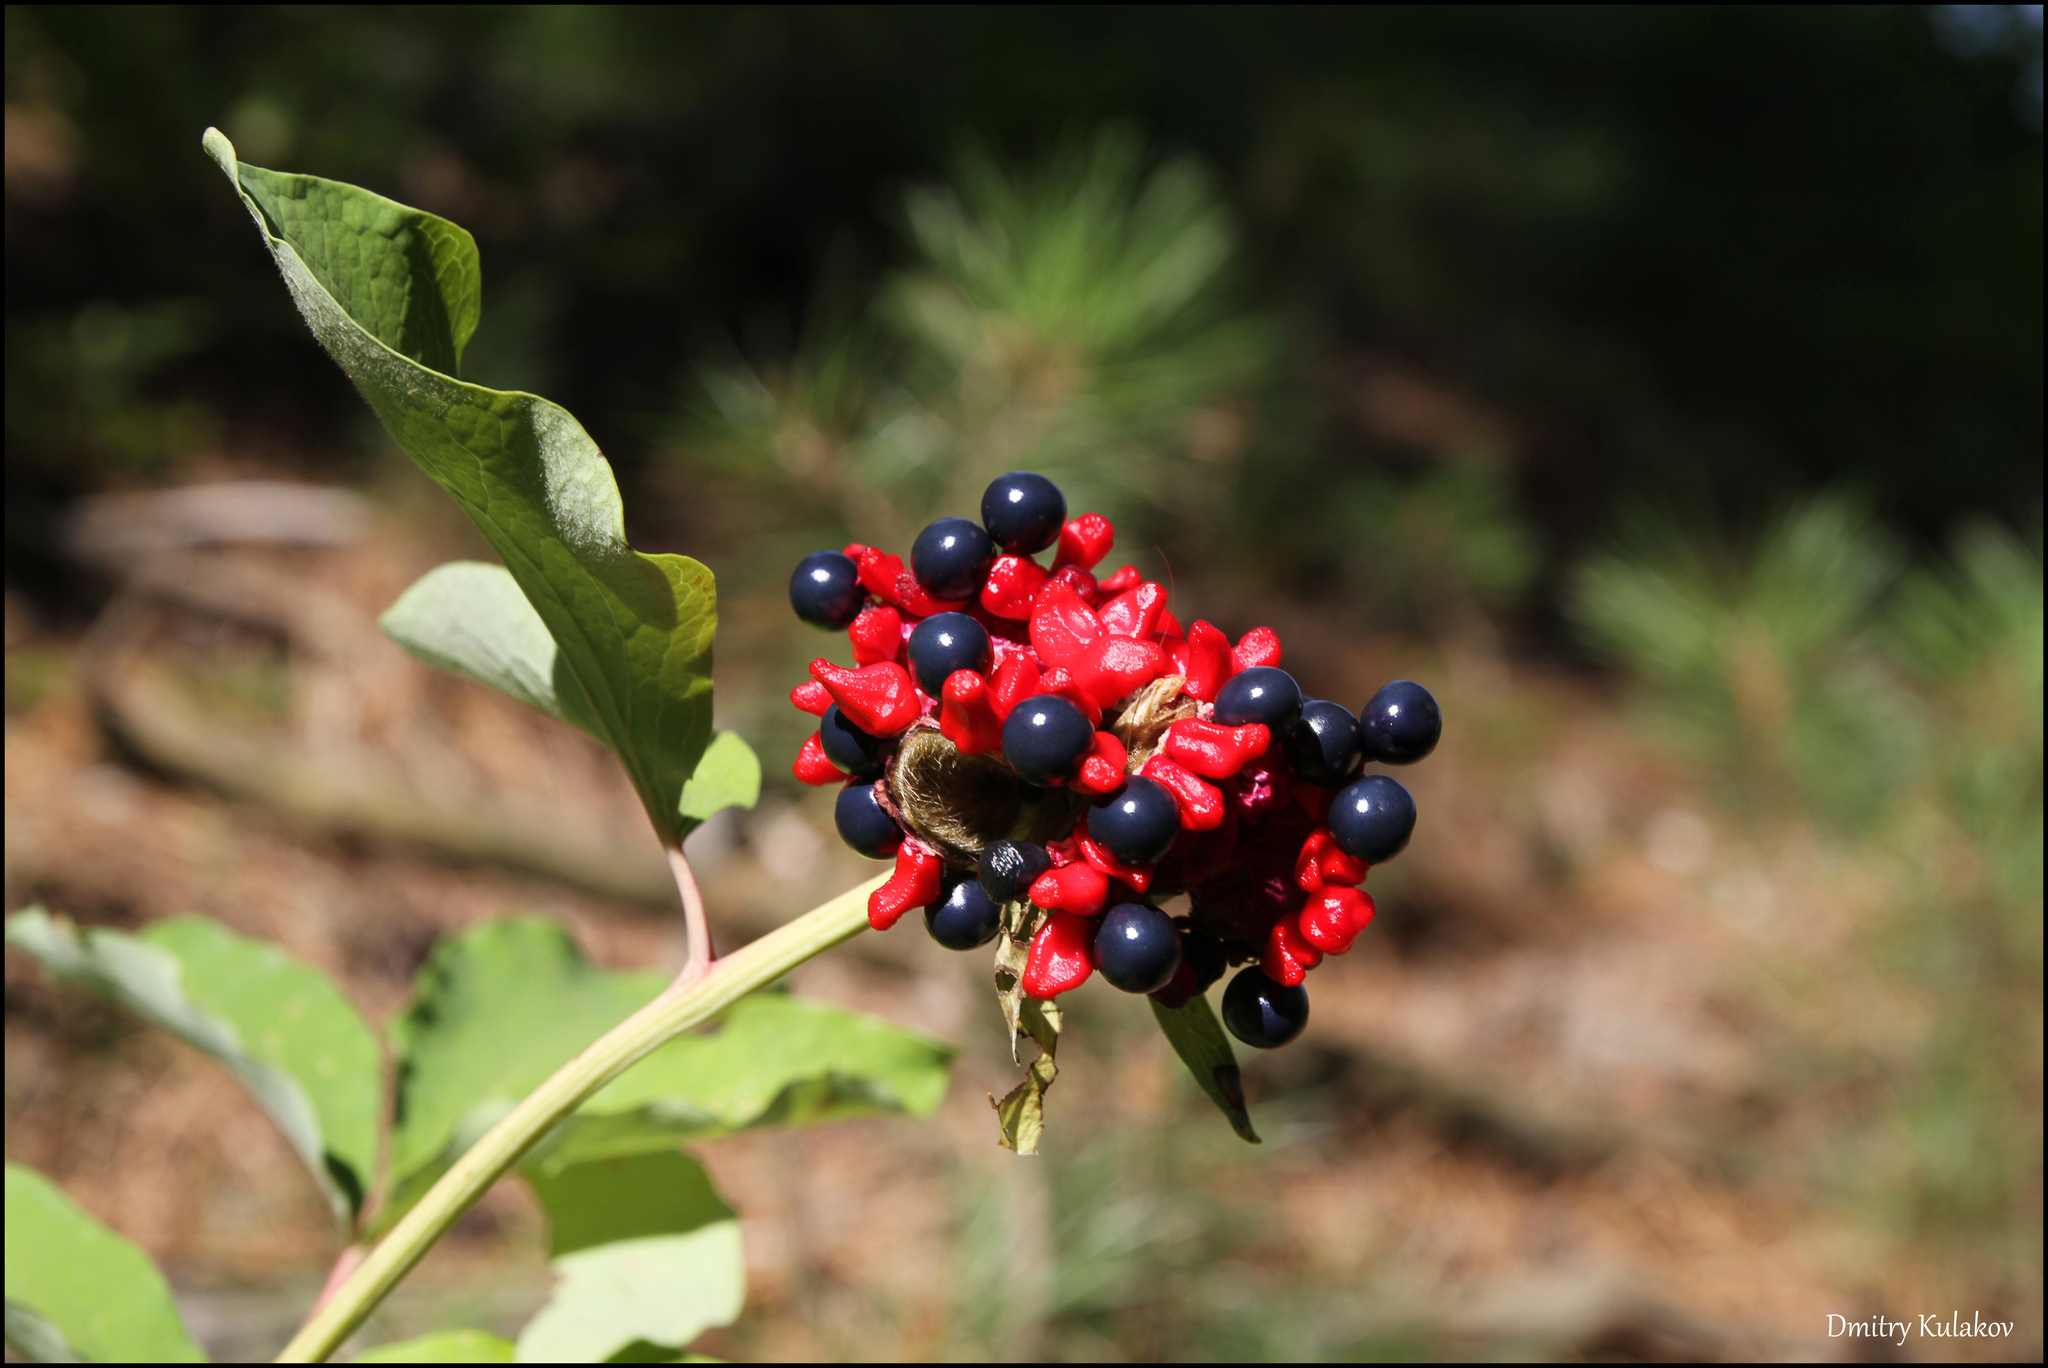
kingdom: Plantae
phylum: Tracheophyta
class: Magnoliopsida
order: Saxifragales
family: Paeoniaceae
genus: Paeonia
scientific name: Paeonia daurica
